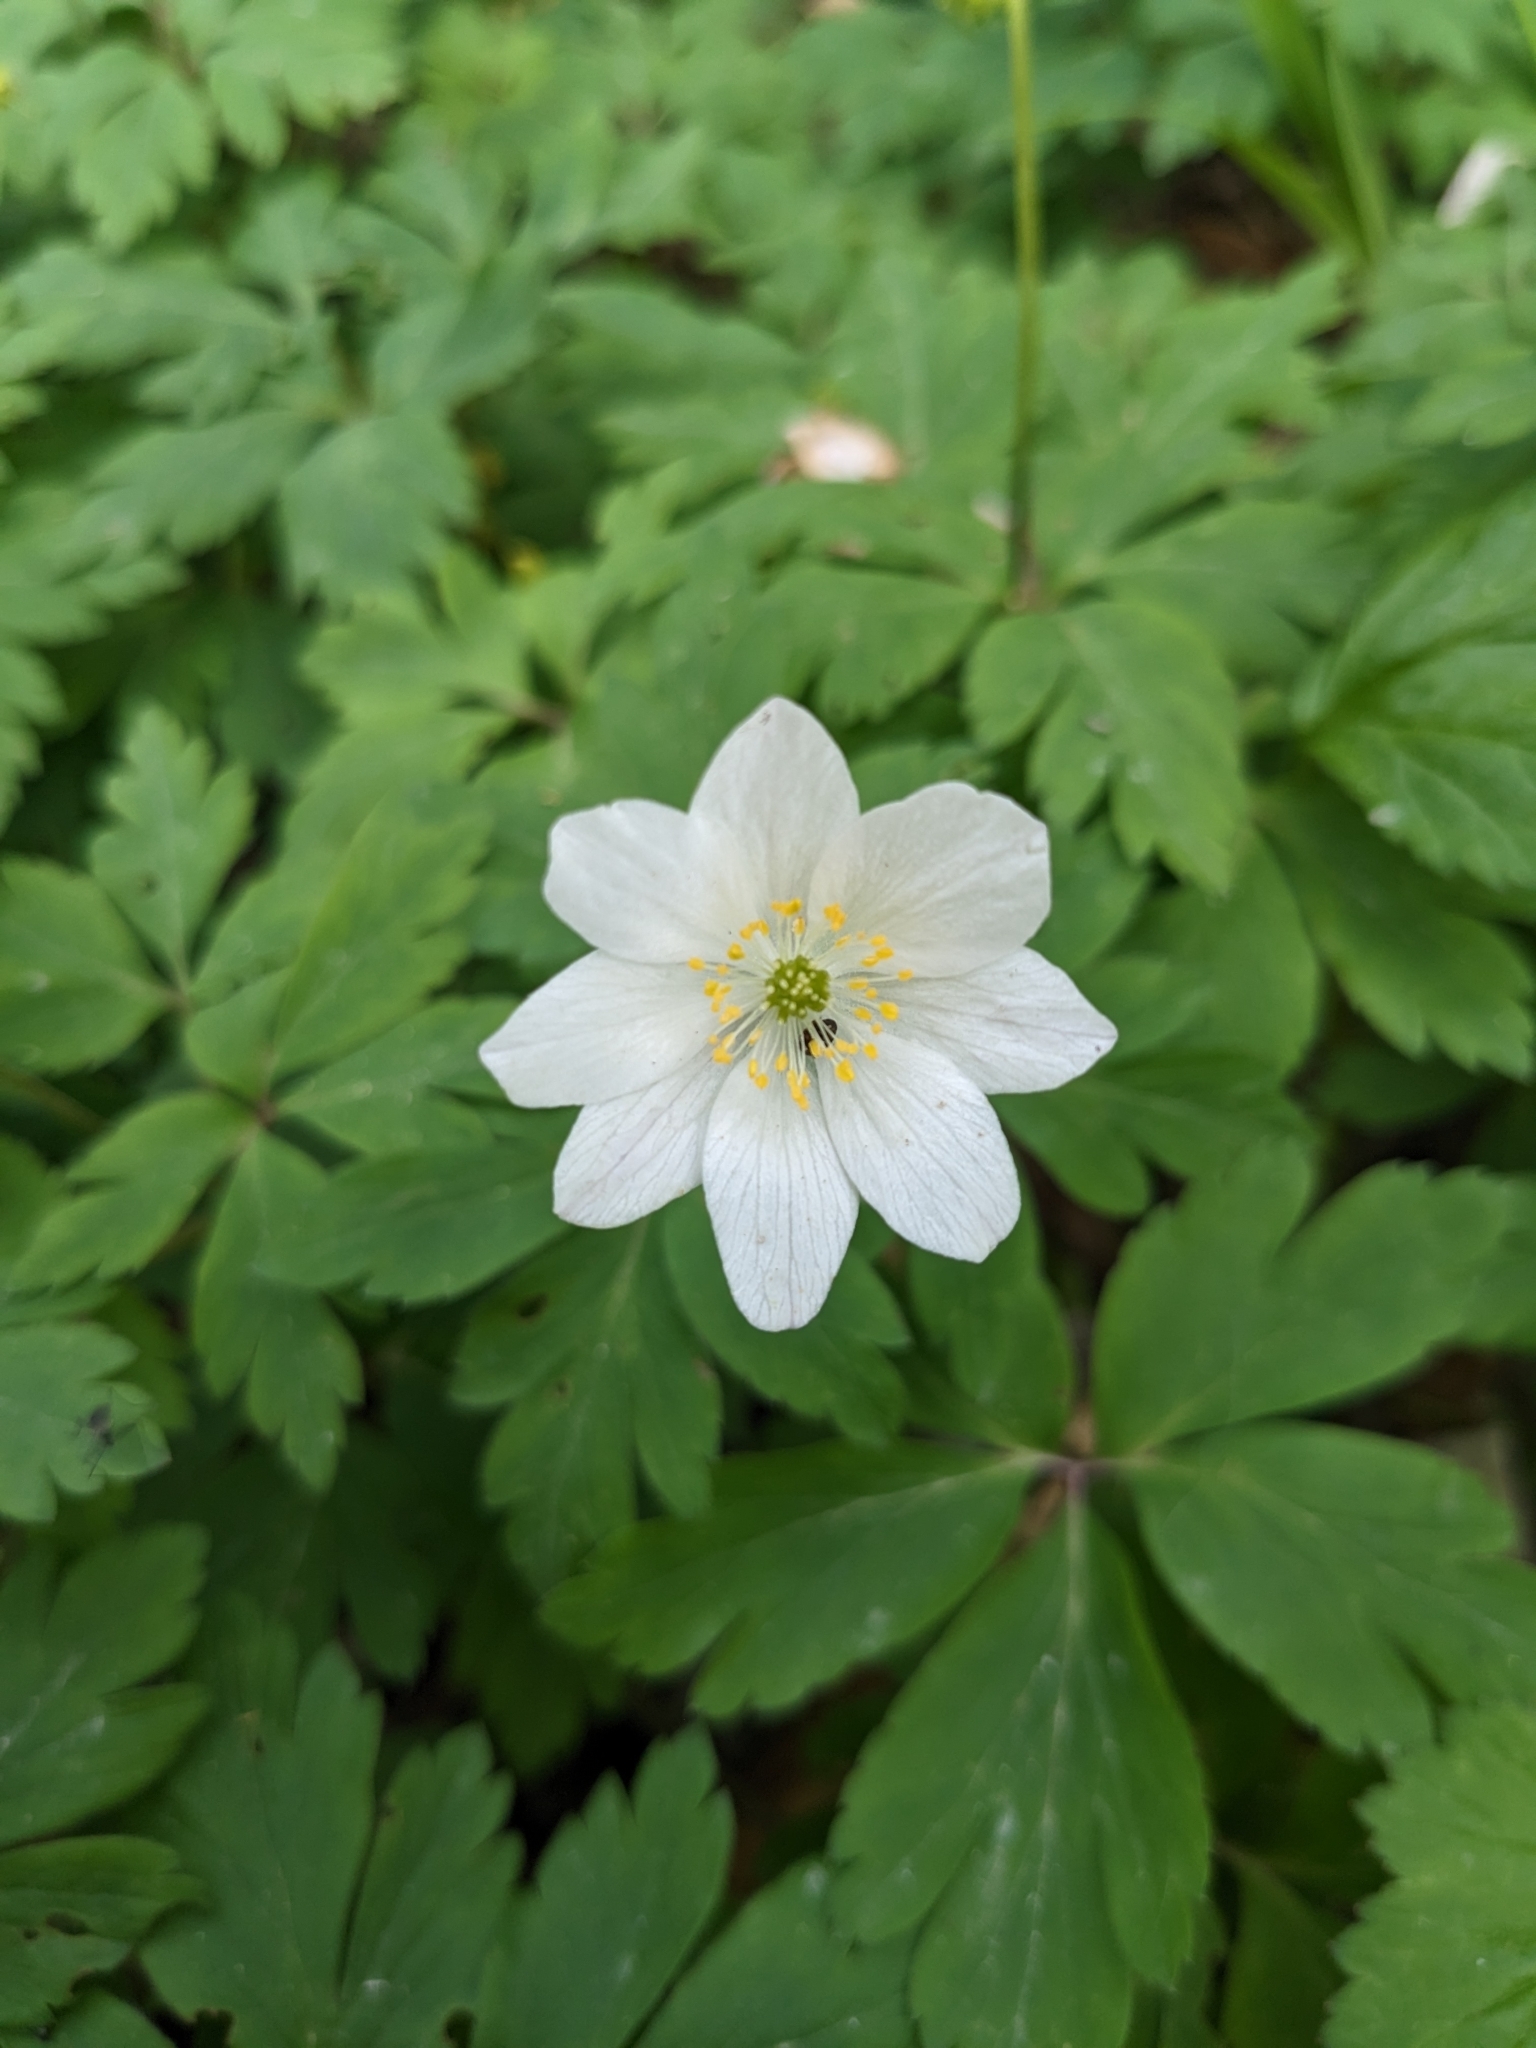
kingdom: Plantae
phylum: Tracheophyta
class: Magnoliopsida
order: Ranunculales
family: Ranunculaceae
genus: Anemone
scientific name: Anemone nemorosa
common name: Wood anemone
